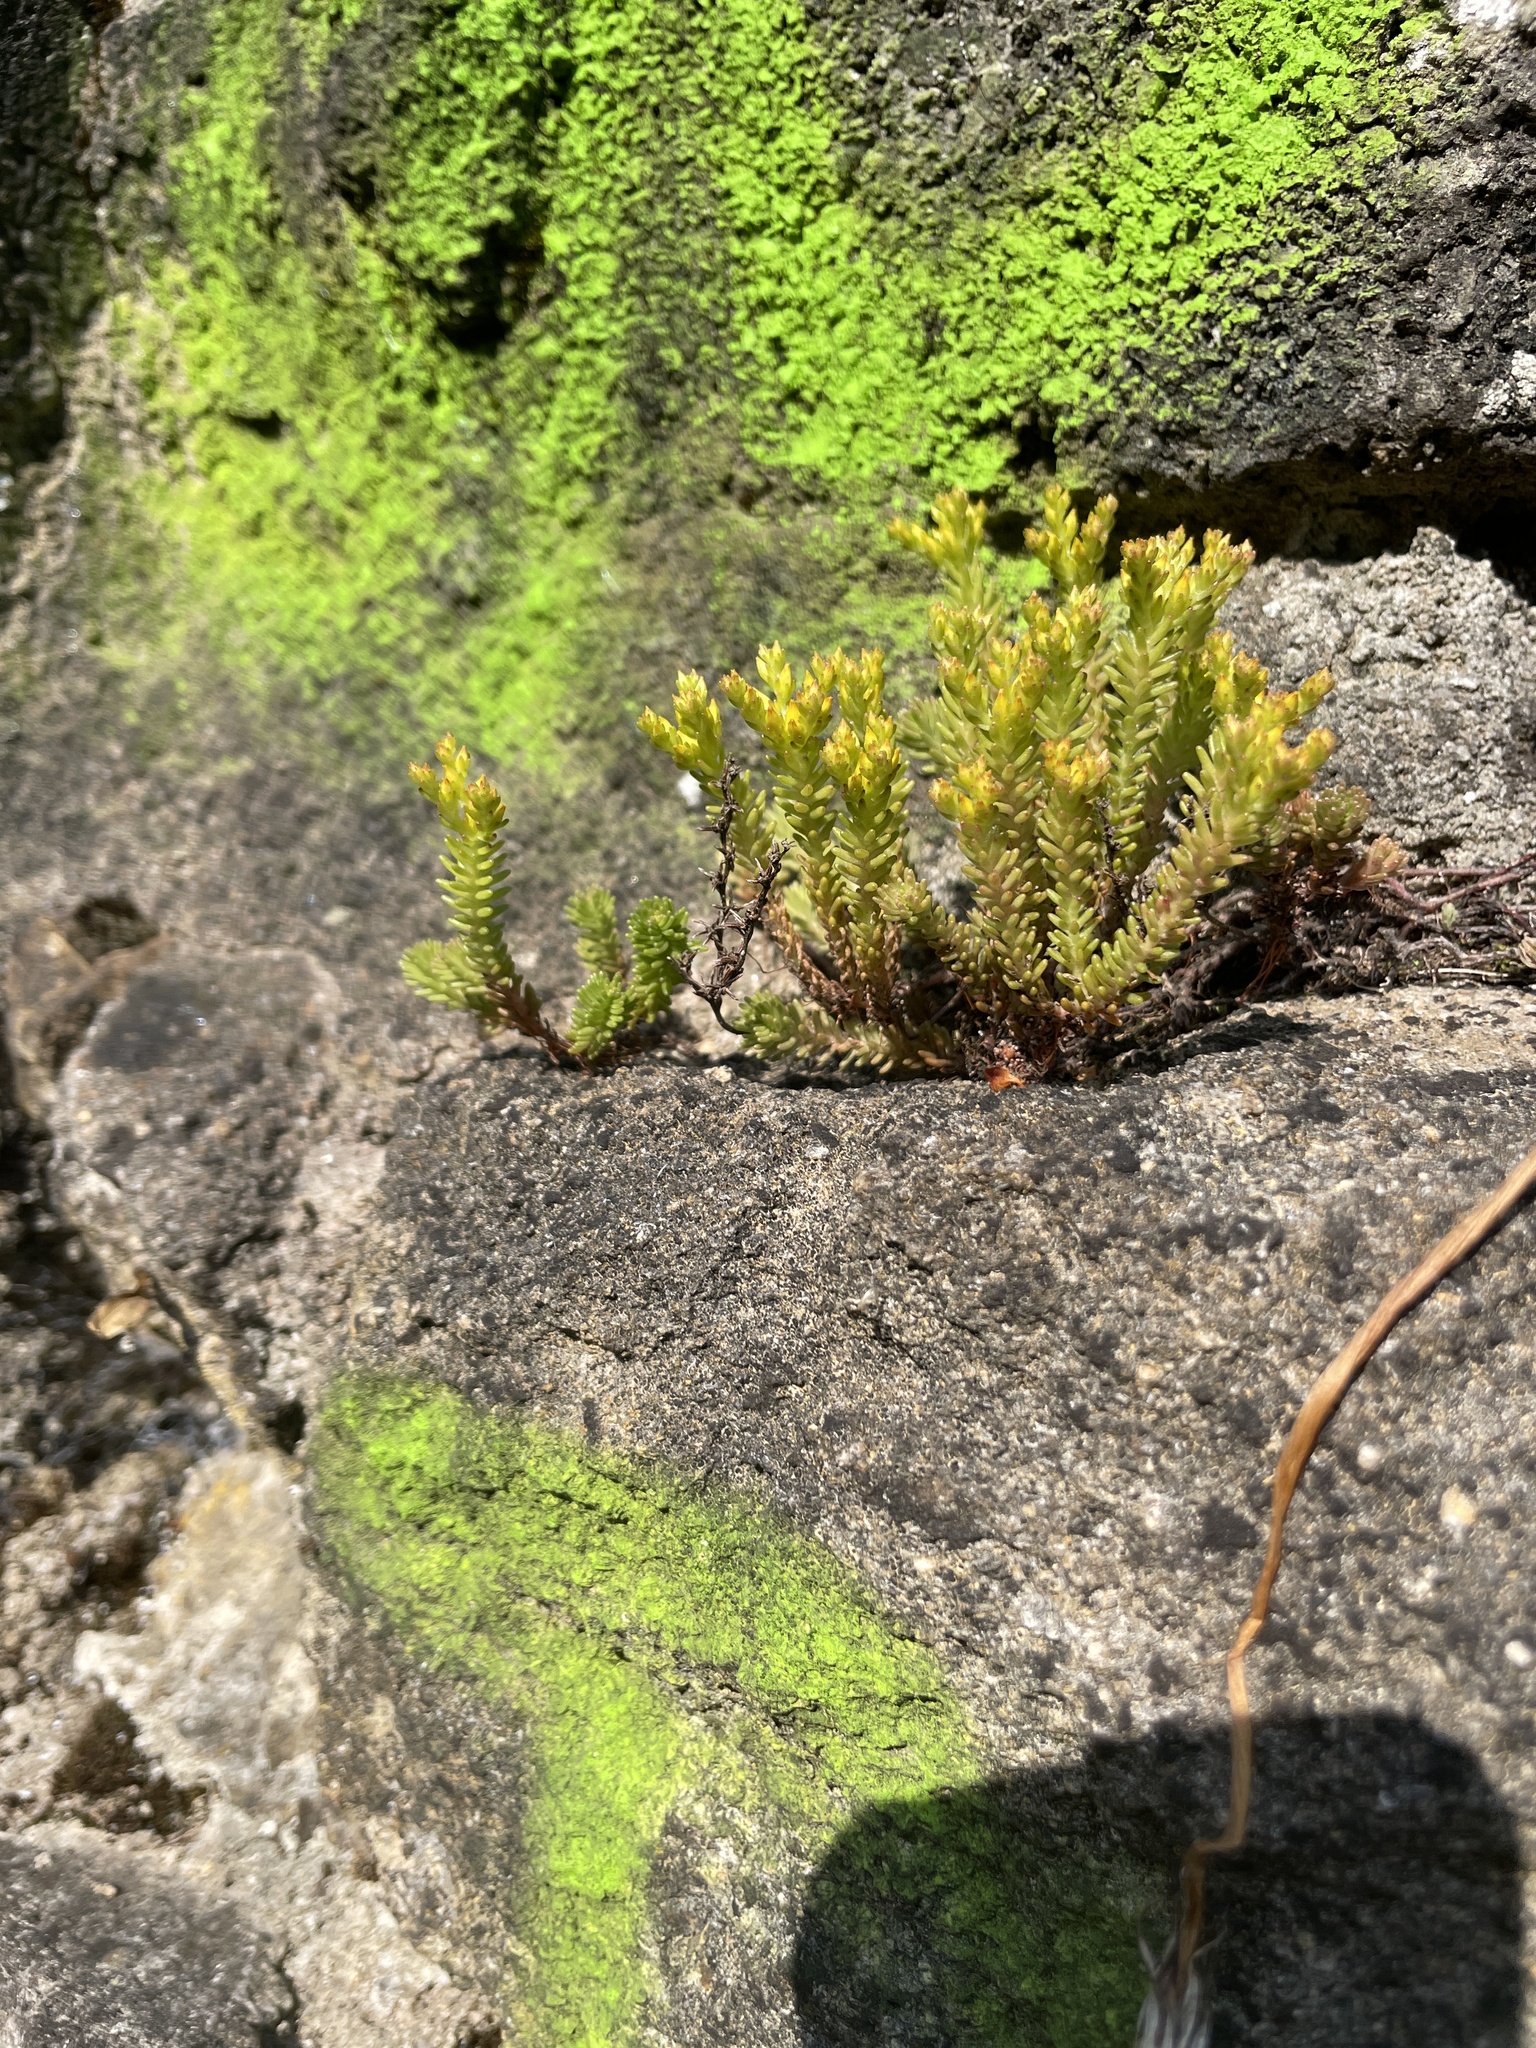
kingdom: Plantae
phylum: Tracheophyta
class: Magnoliopsida
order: Saxifragales
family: Crassulaceae
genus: Sedum
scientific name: Sedum sexangulare
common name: Tasteless stonecrop
